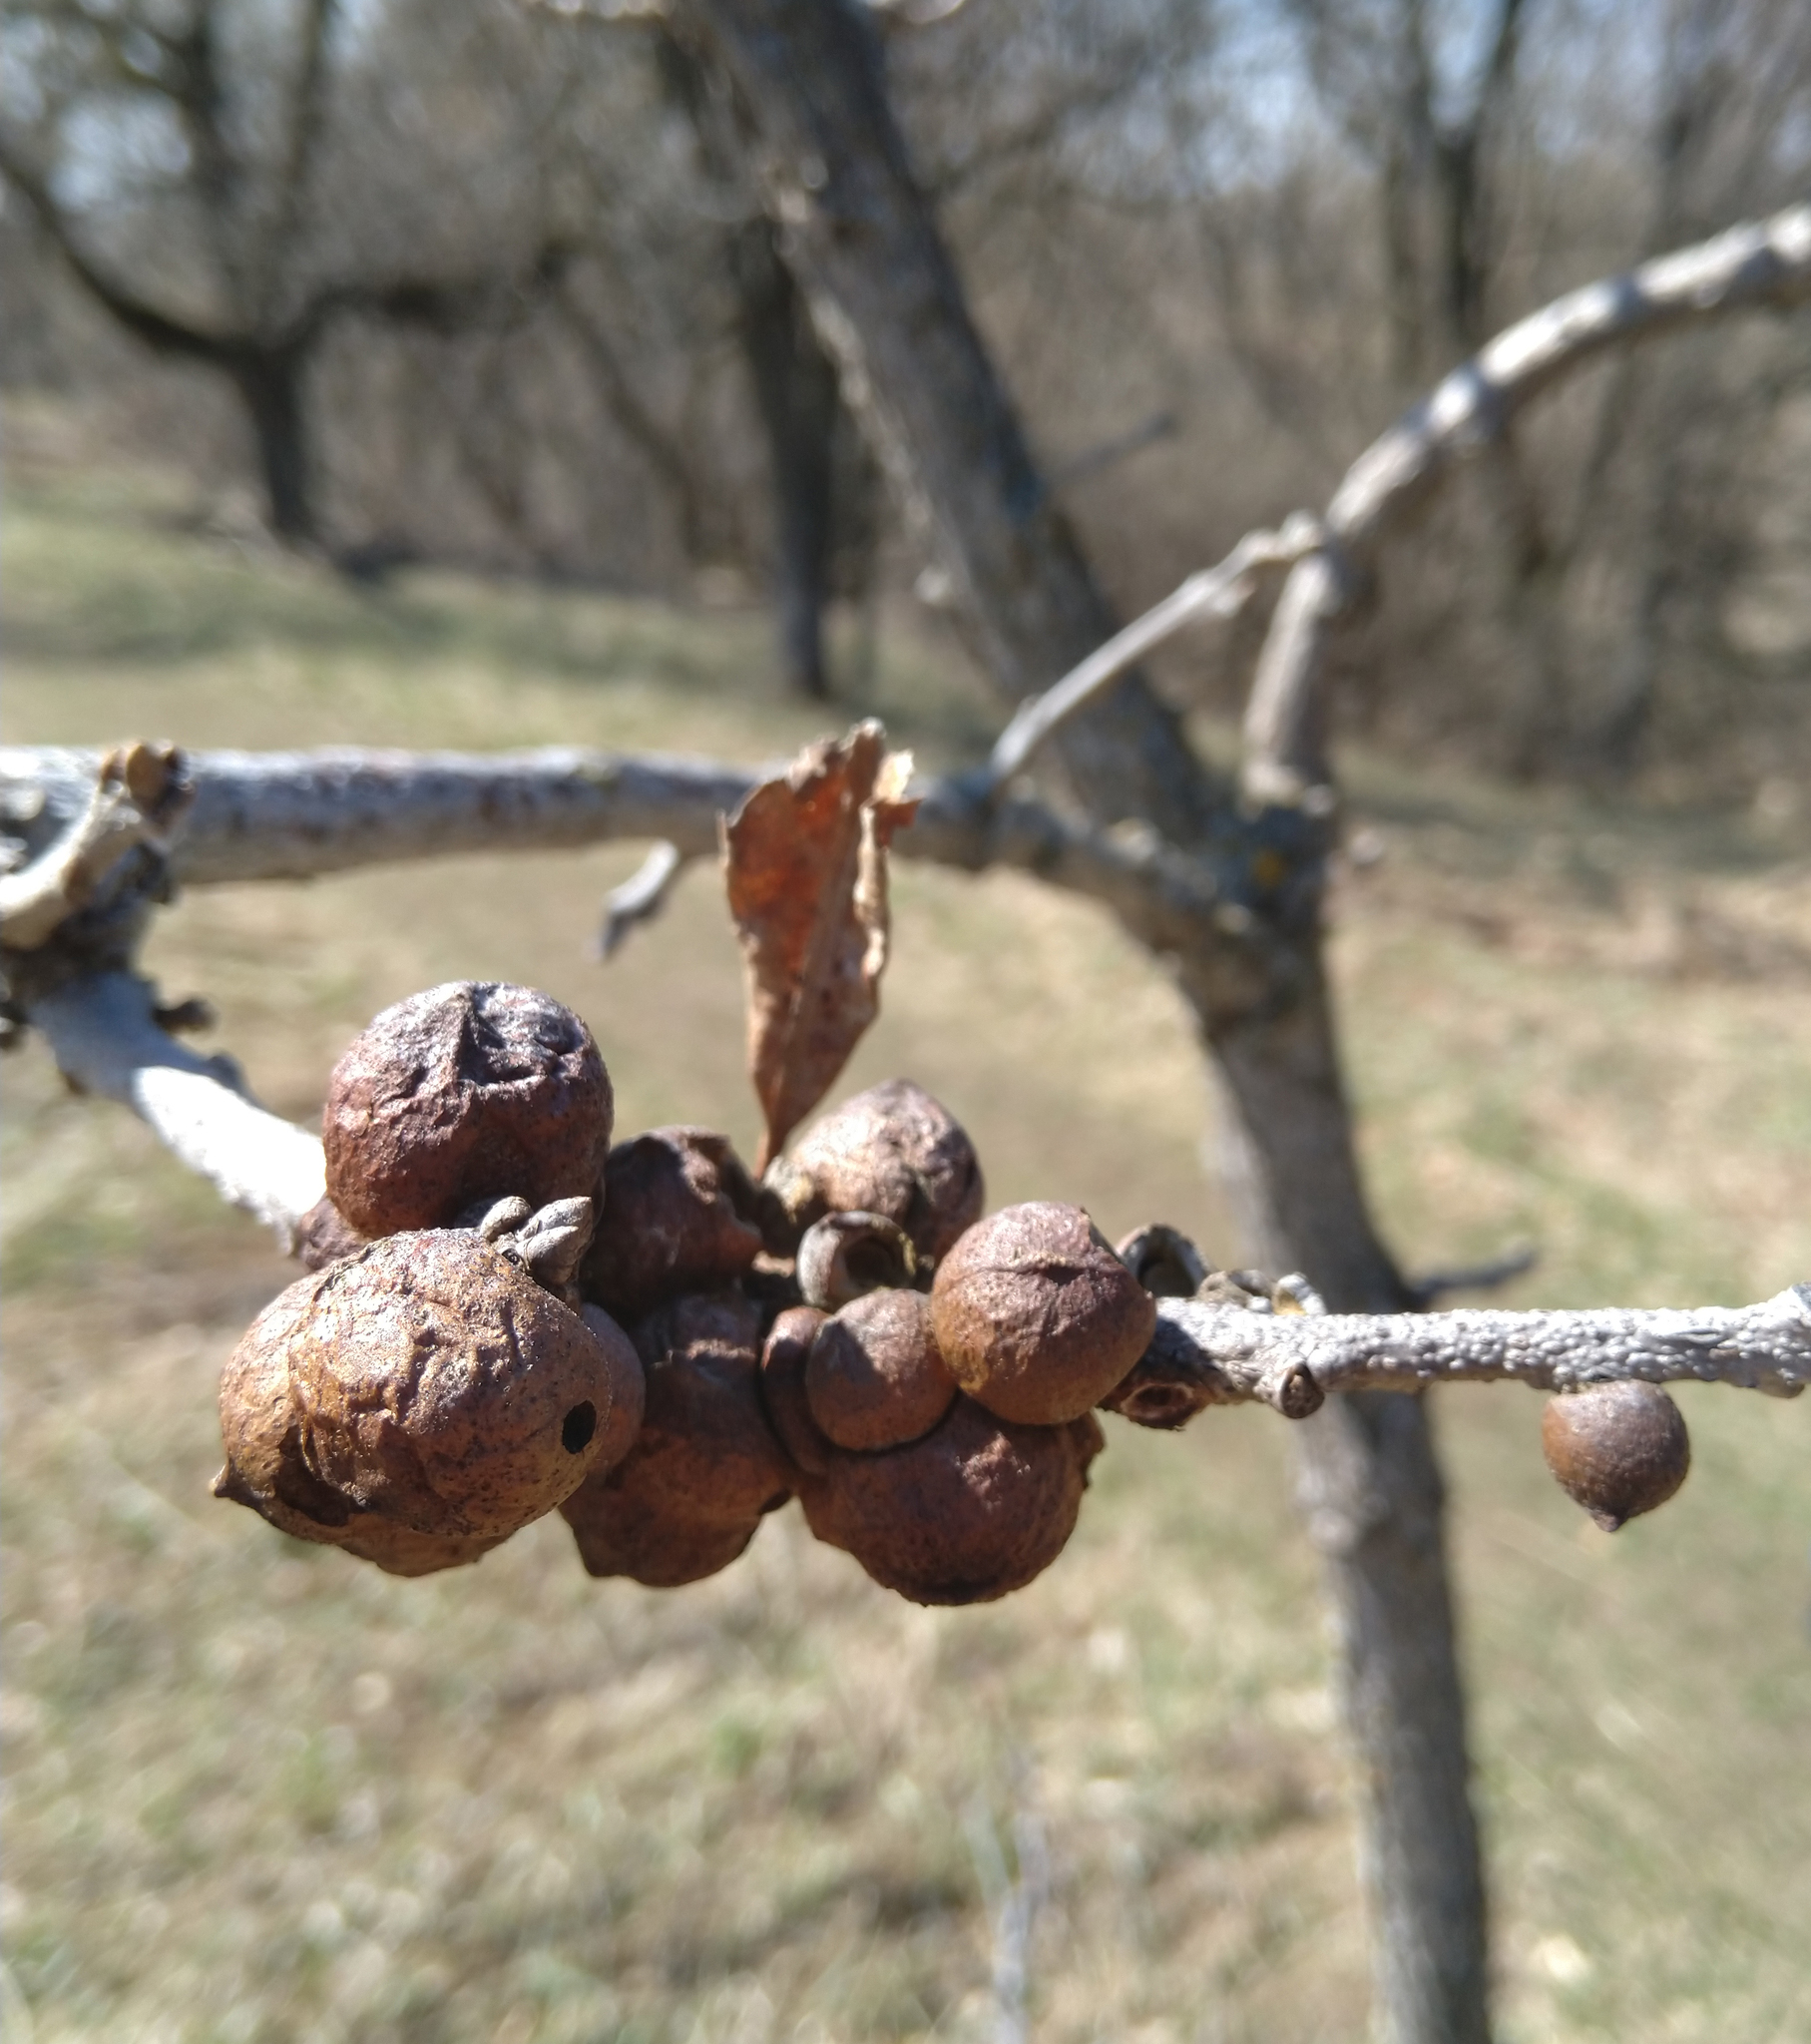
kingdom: Animalia
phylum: Arthropoda
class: Insecta
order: Hymenoptera
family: Cynipidae
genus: Disholcaspis
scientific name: Disholcaspis
